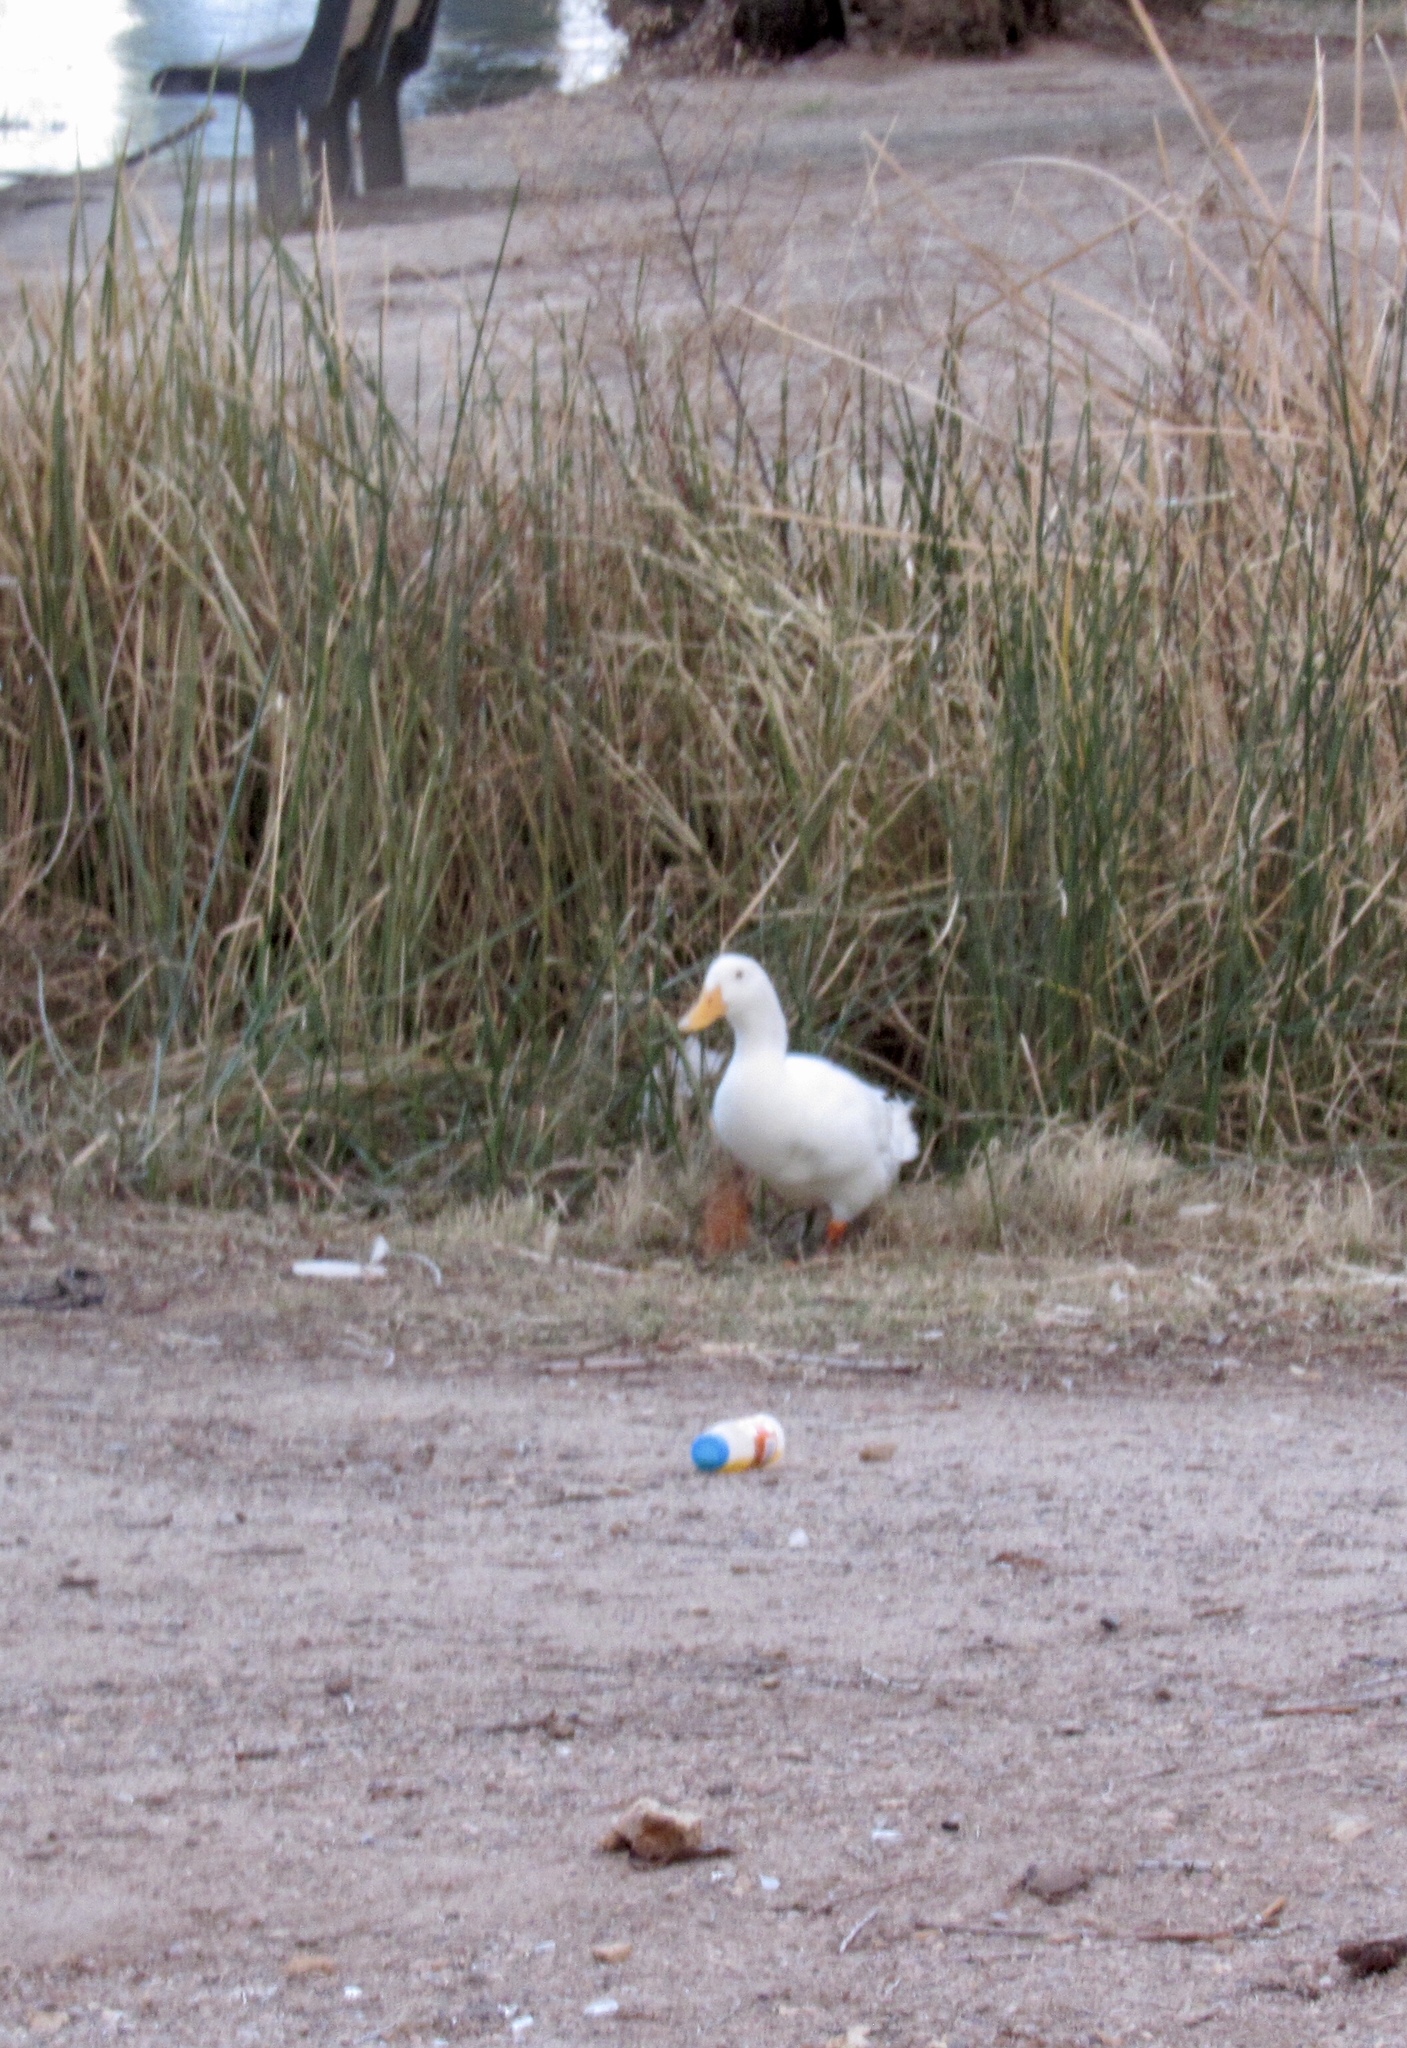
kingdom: Animalia
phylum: Chordata
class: Aves
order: Anseriformes
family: Anatidae
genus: Anas
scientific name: Anas platyrhynchos
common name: Mallard
